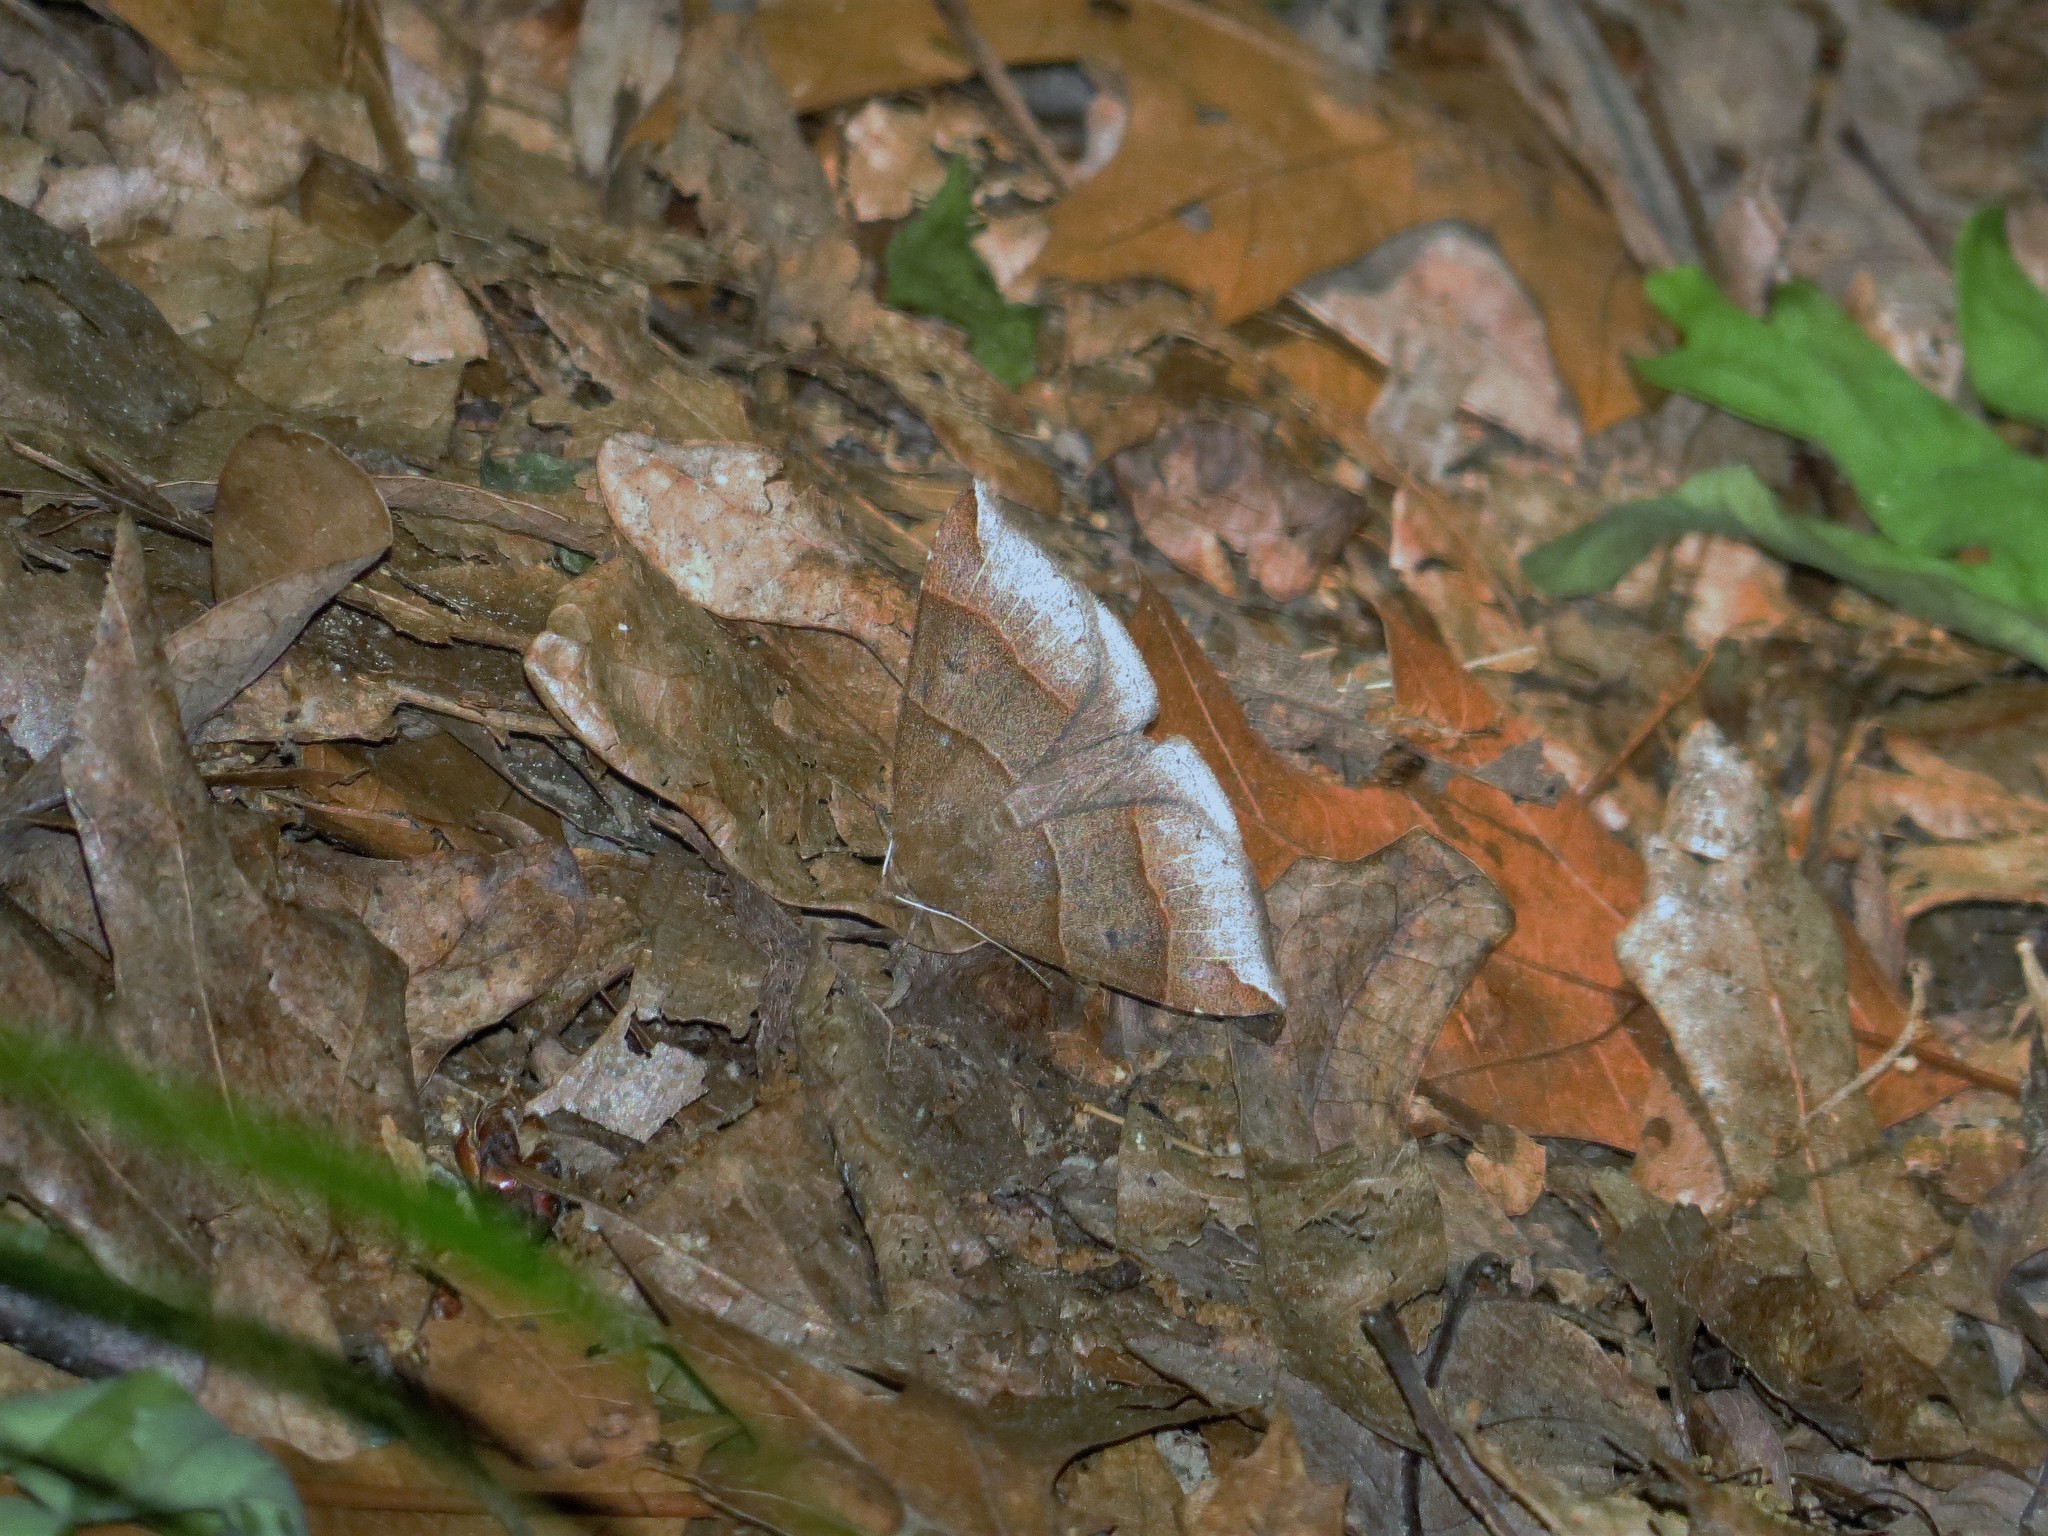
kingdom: Animalia
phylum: Arthropoda
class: Insecta
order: Lepidoptera
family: Erebidae
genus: Parallelia
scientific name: Parallelia bistriaris
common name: Maple looper moth
